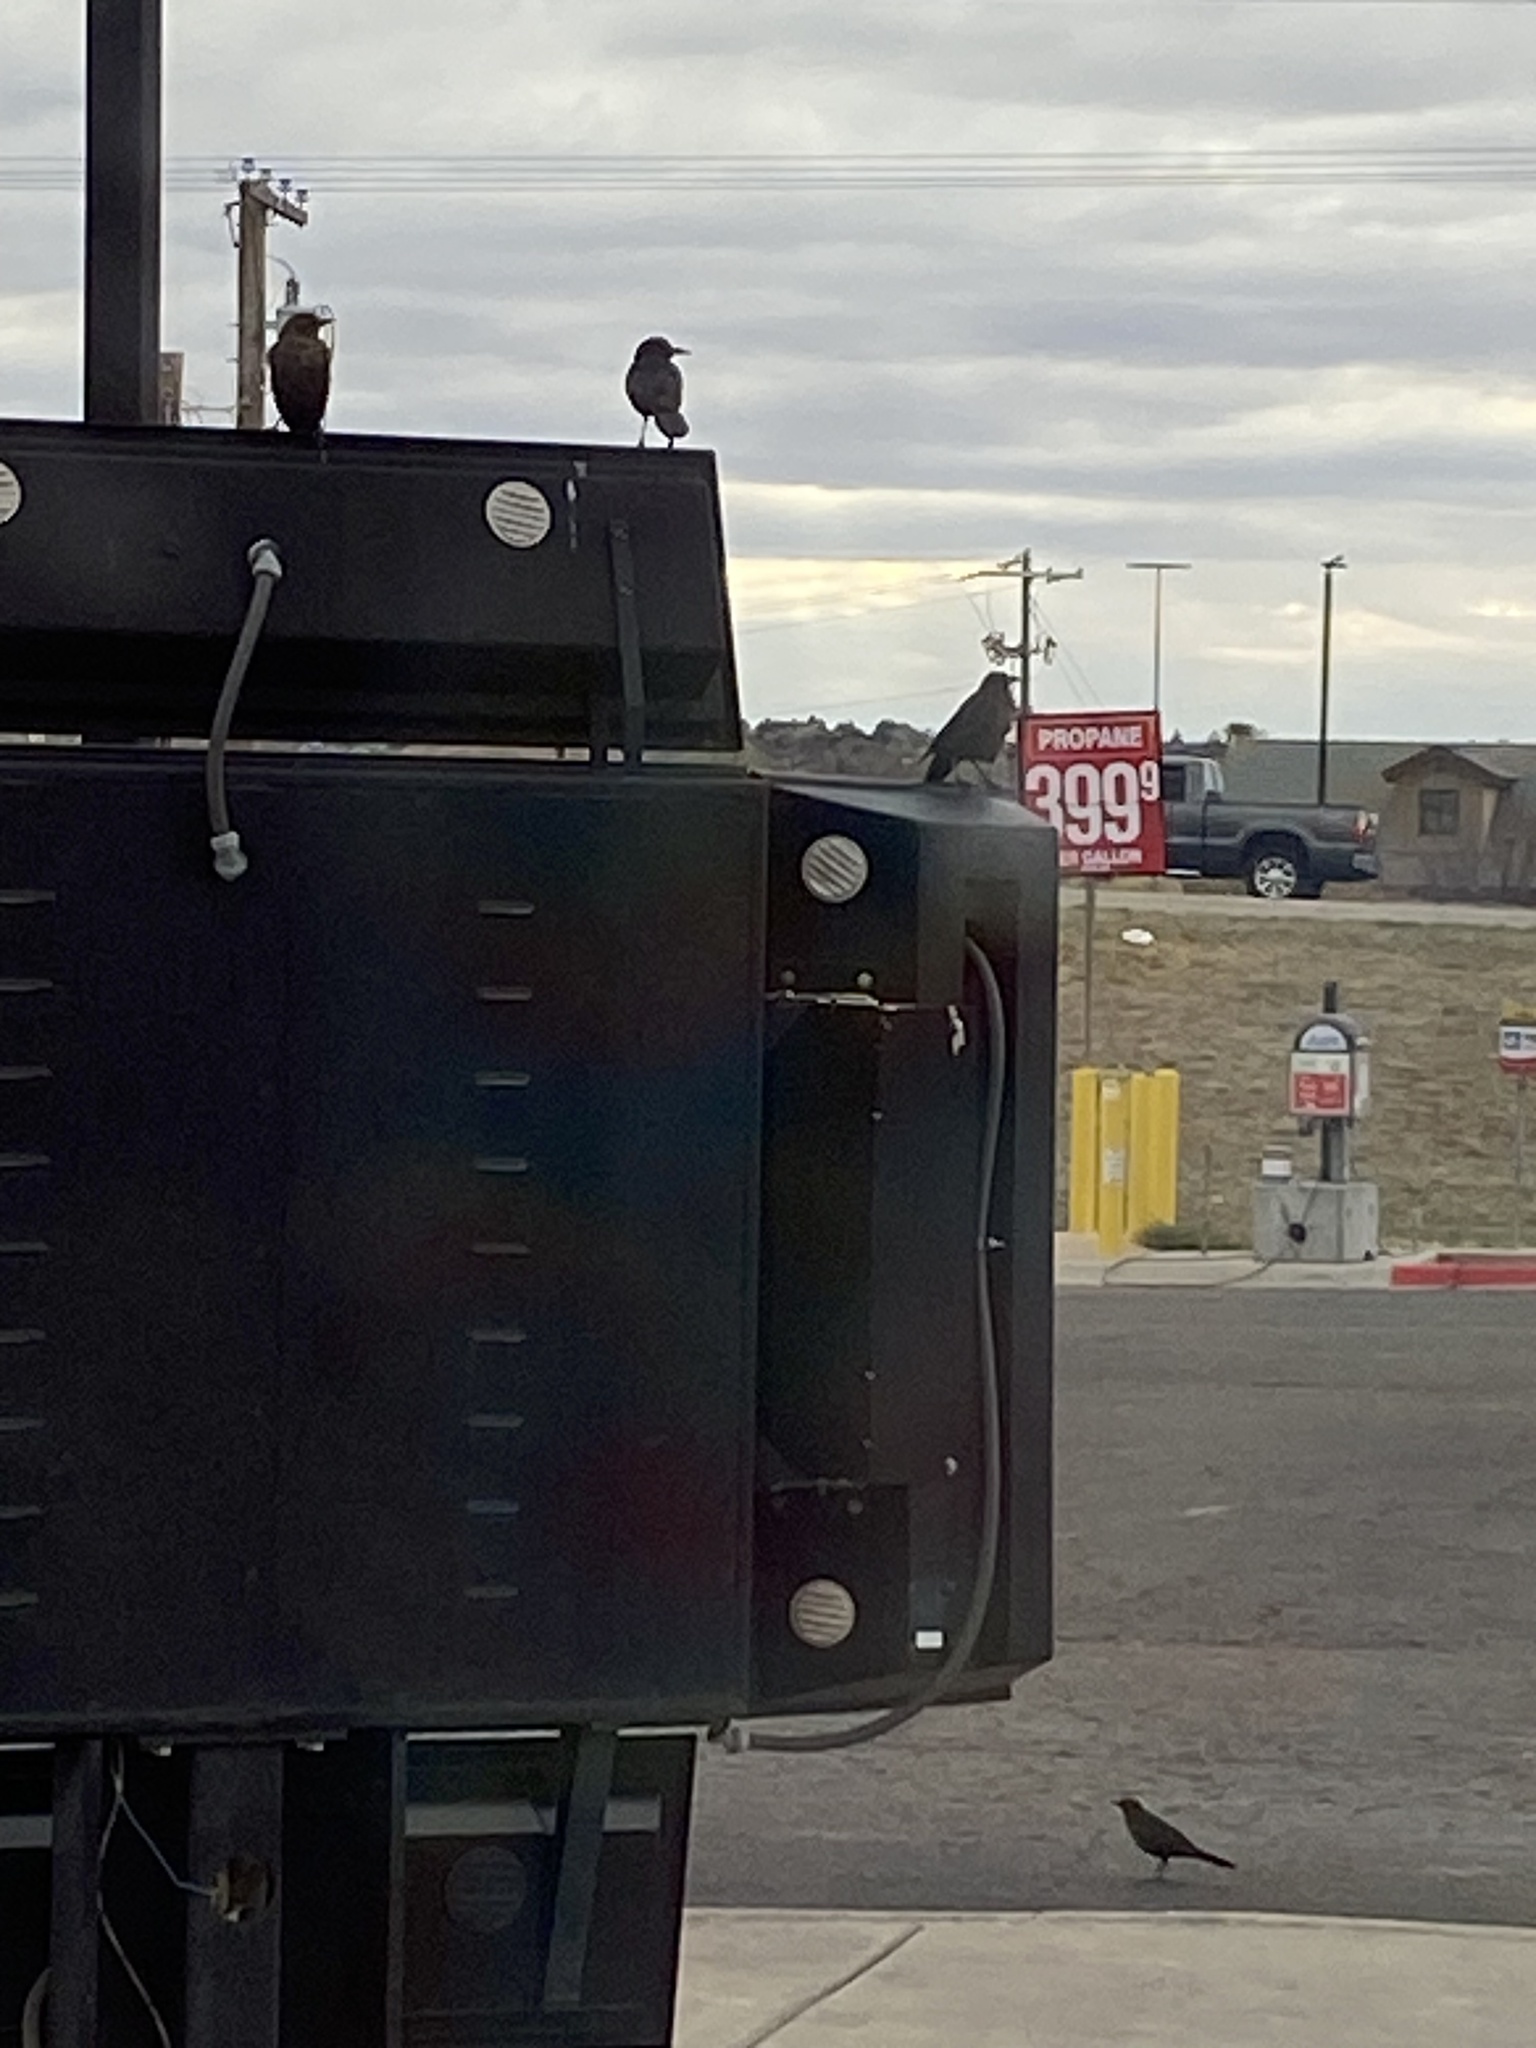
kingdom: Animalia
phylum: Chordata
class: Aves
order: Passeriformes
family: Icteridae
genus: Quiscalus
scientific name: Quiscalus mexicanus
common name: Great-tailed grackle
